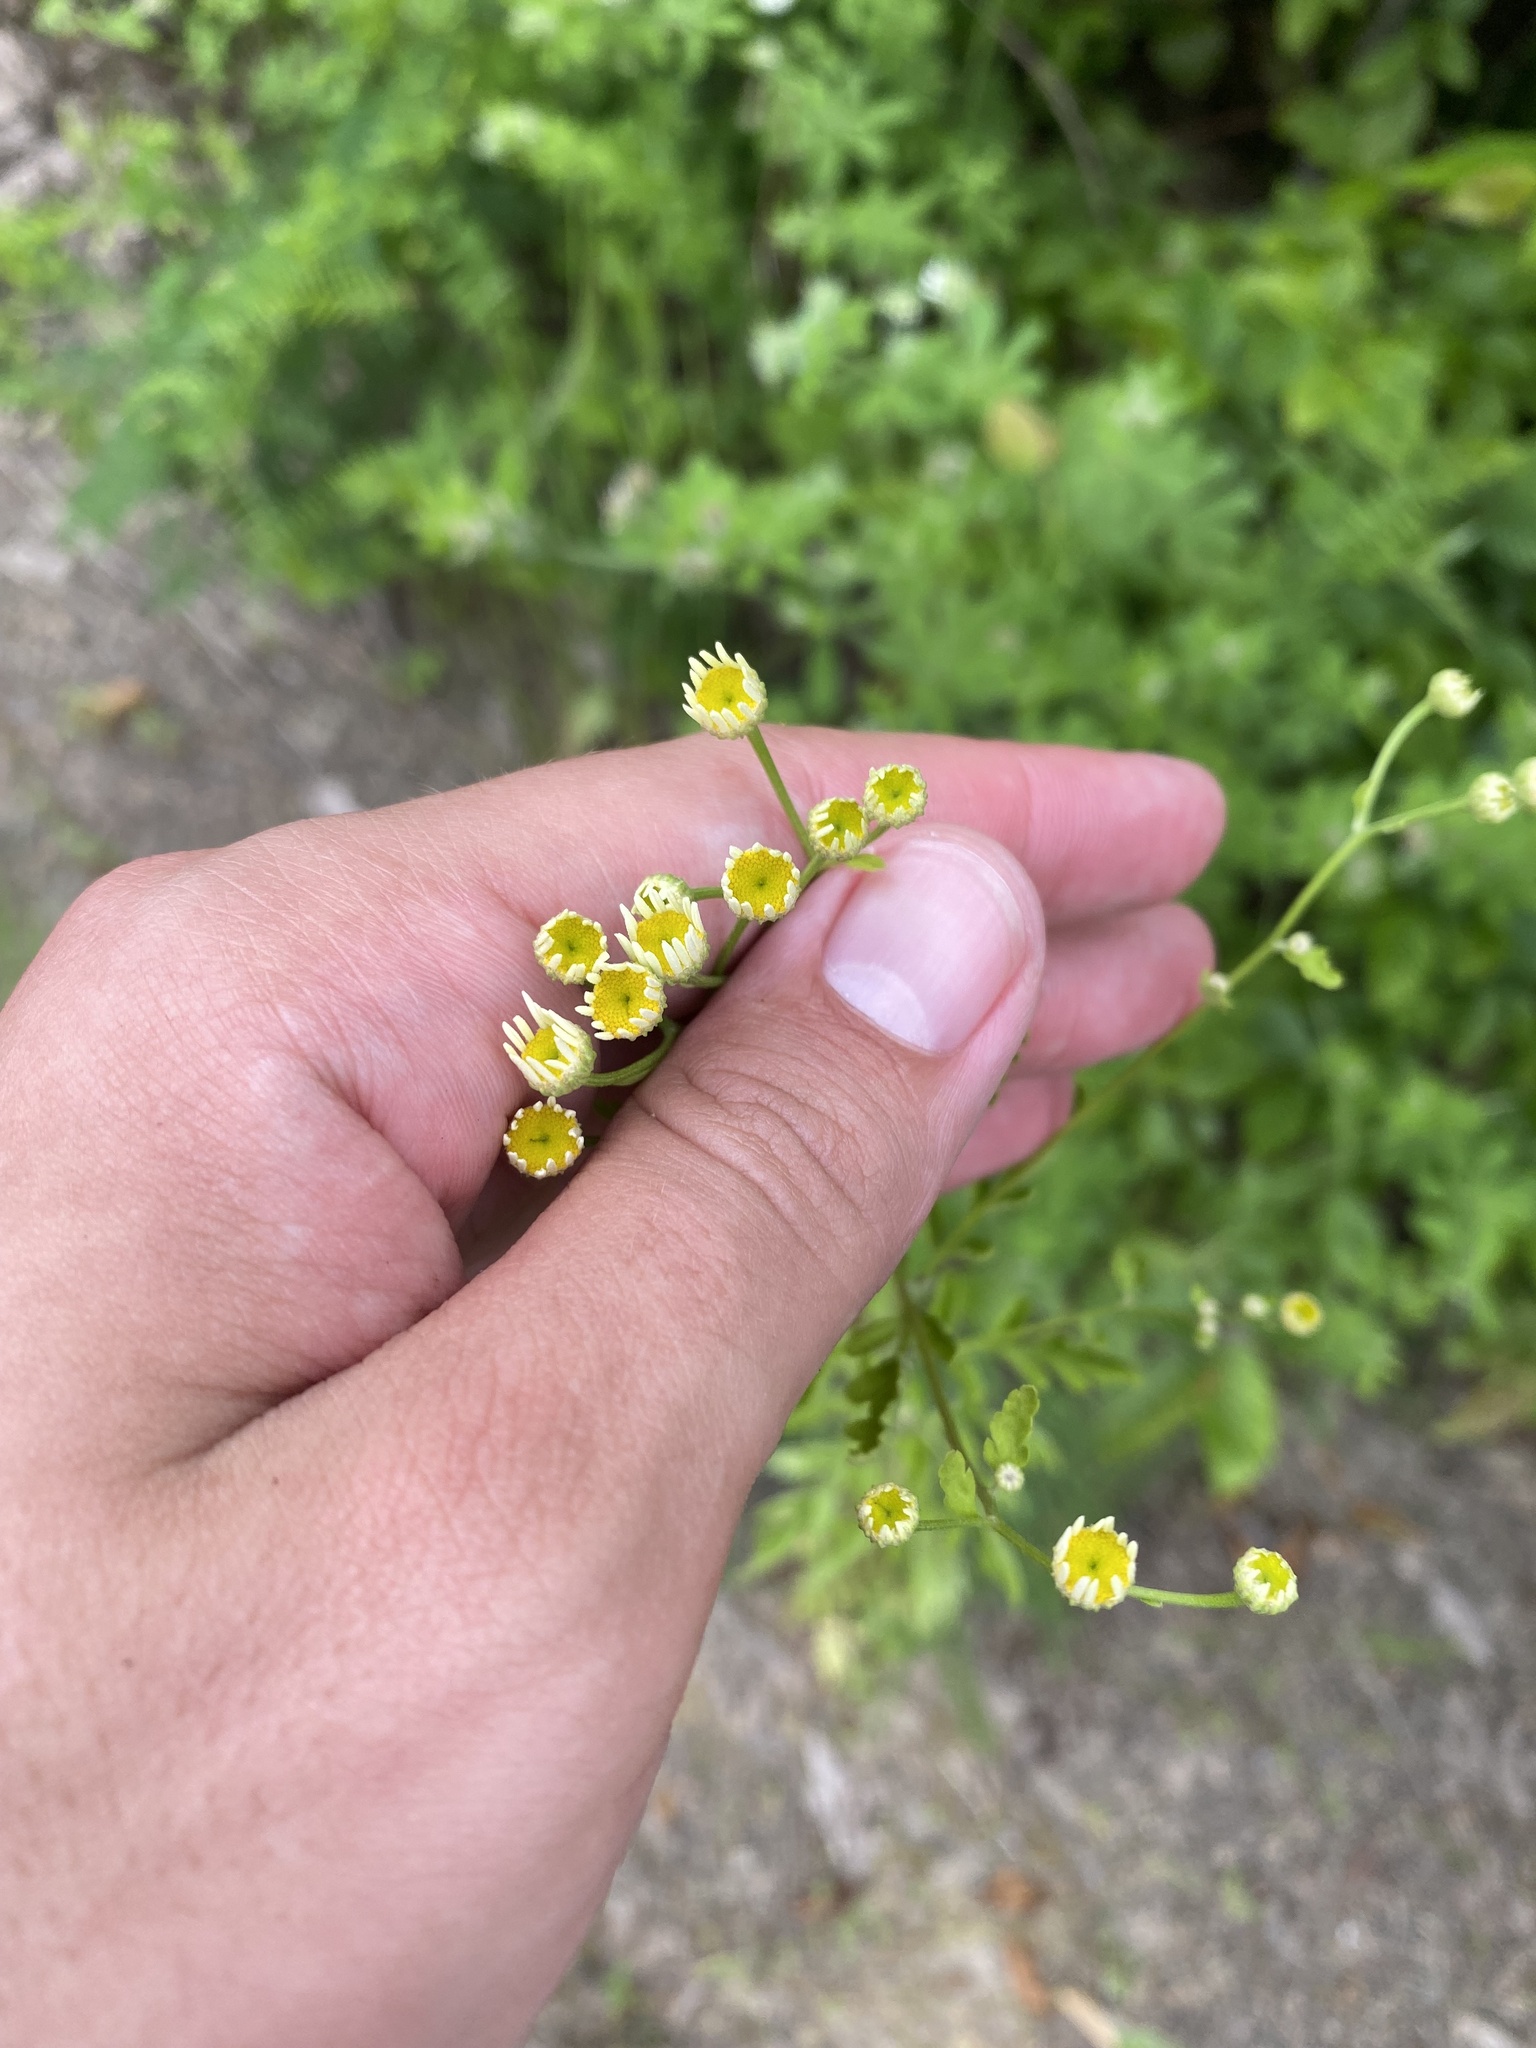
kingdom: Plantae
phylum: Tracheophyta
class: Magnoliopsida
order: Asterales
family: Asteraceae
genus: Tanacetum
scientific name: Tanacetum partheniifolium
